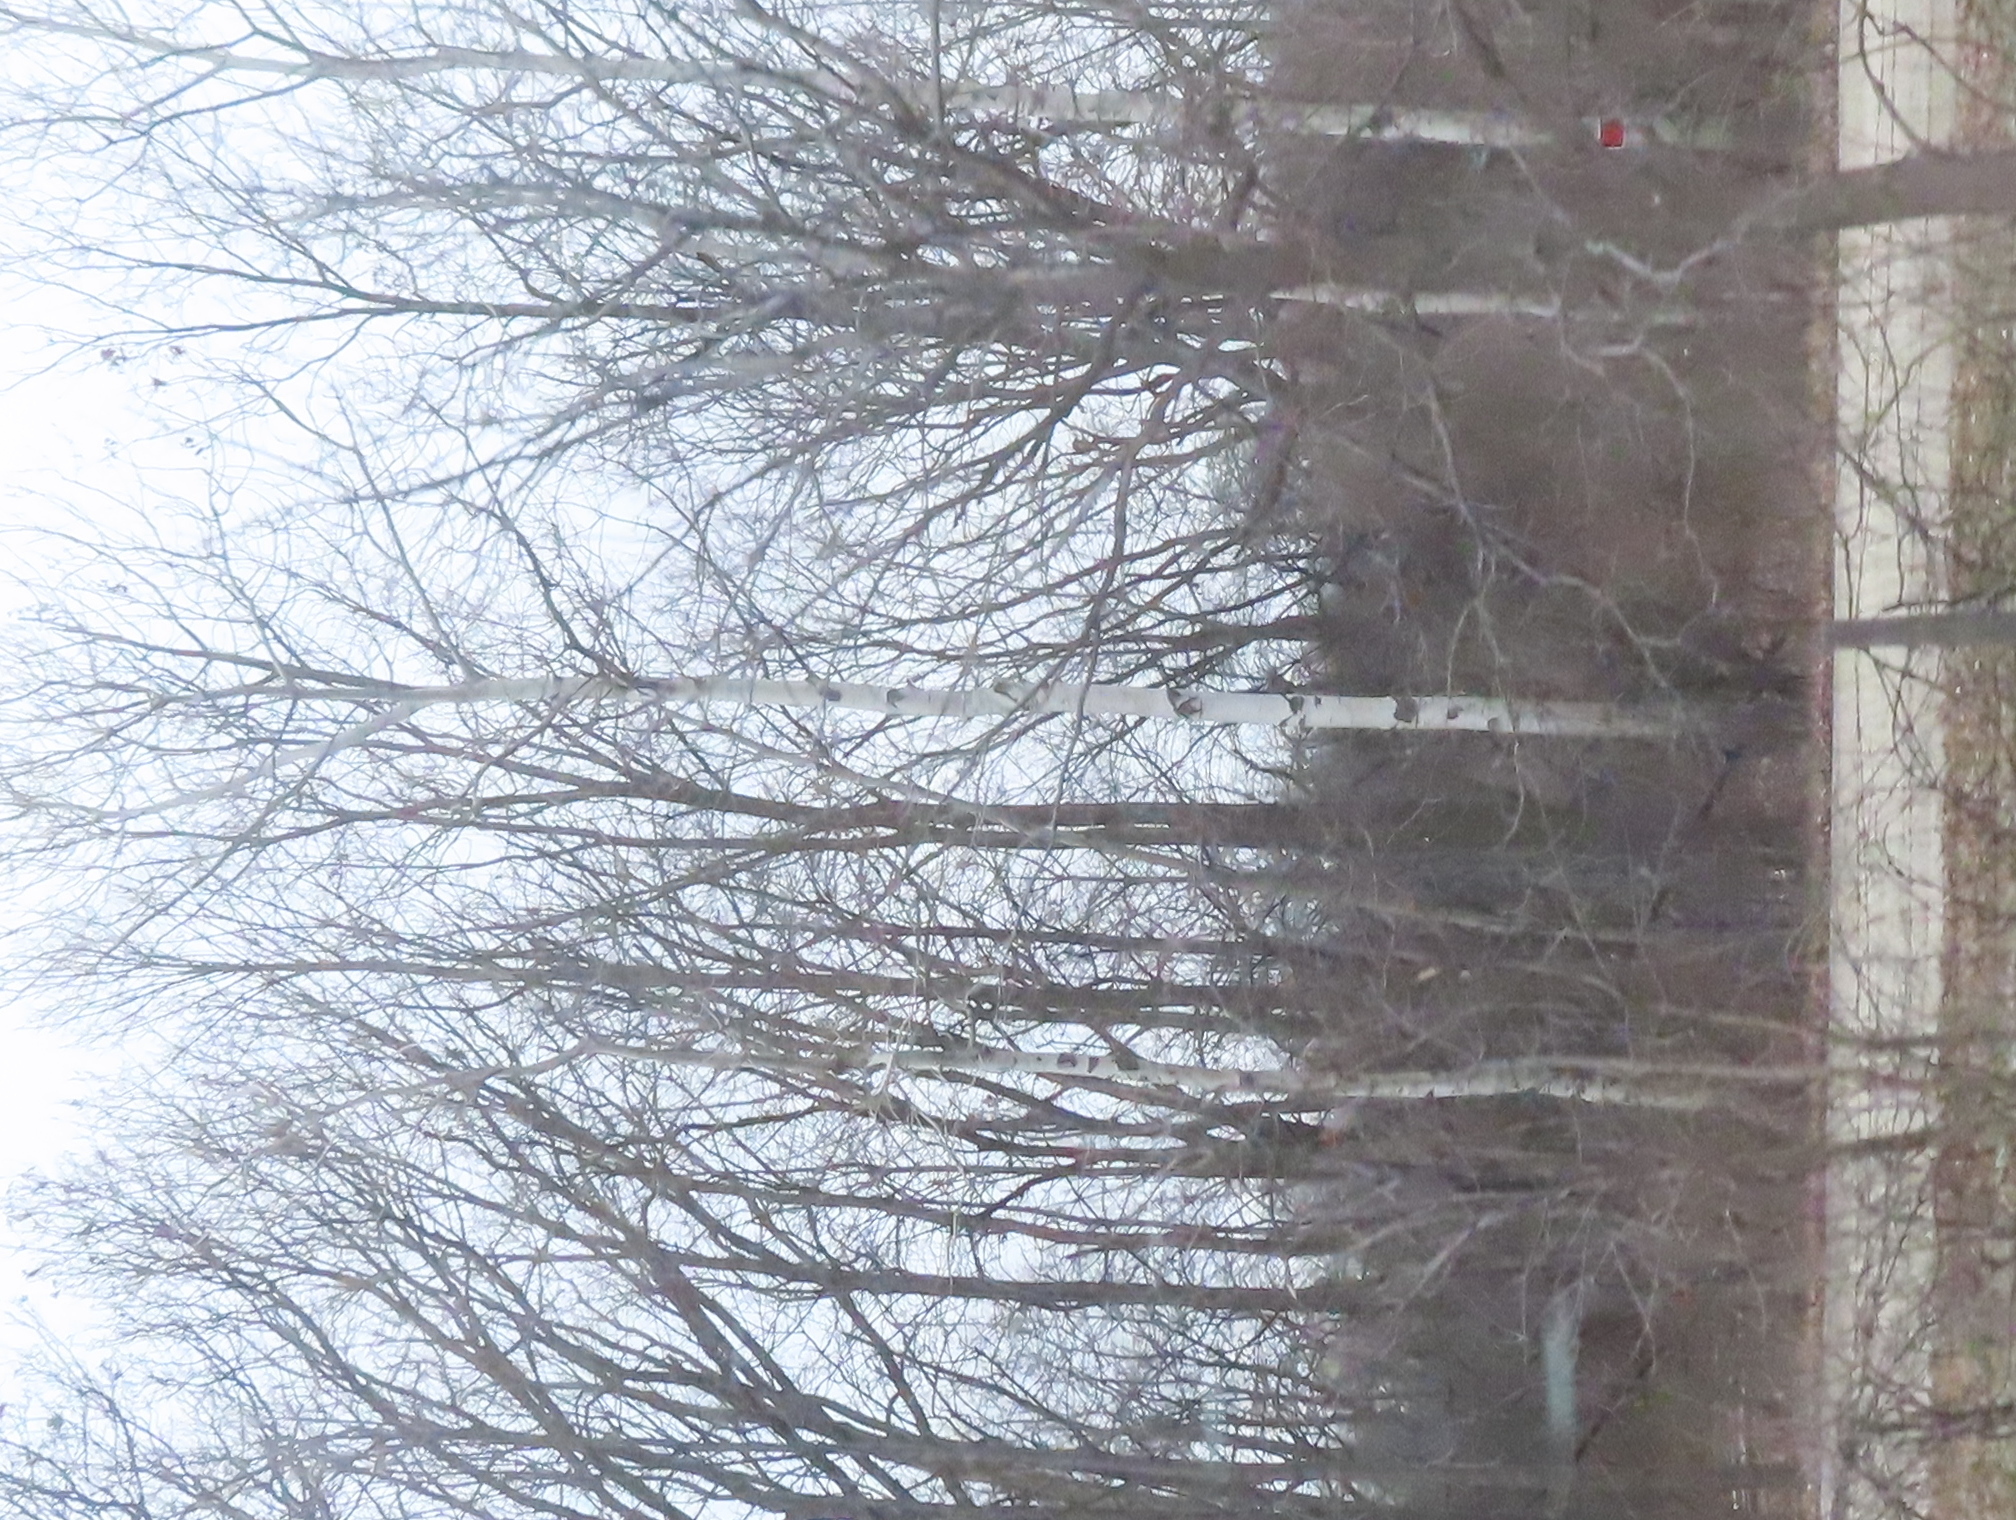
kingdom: Plantae
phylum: Tracheophyta
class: Magnoliopsida
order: Malpighiales
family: Salicaceae
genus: Populus
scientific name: Populus tremuloides
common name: Quaking aspen
